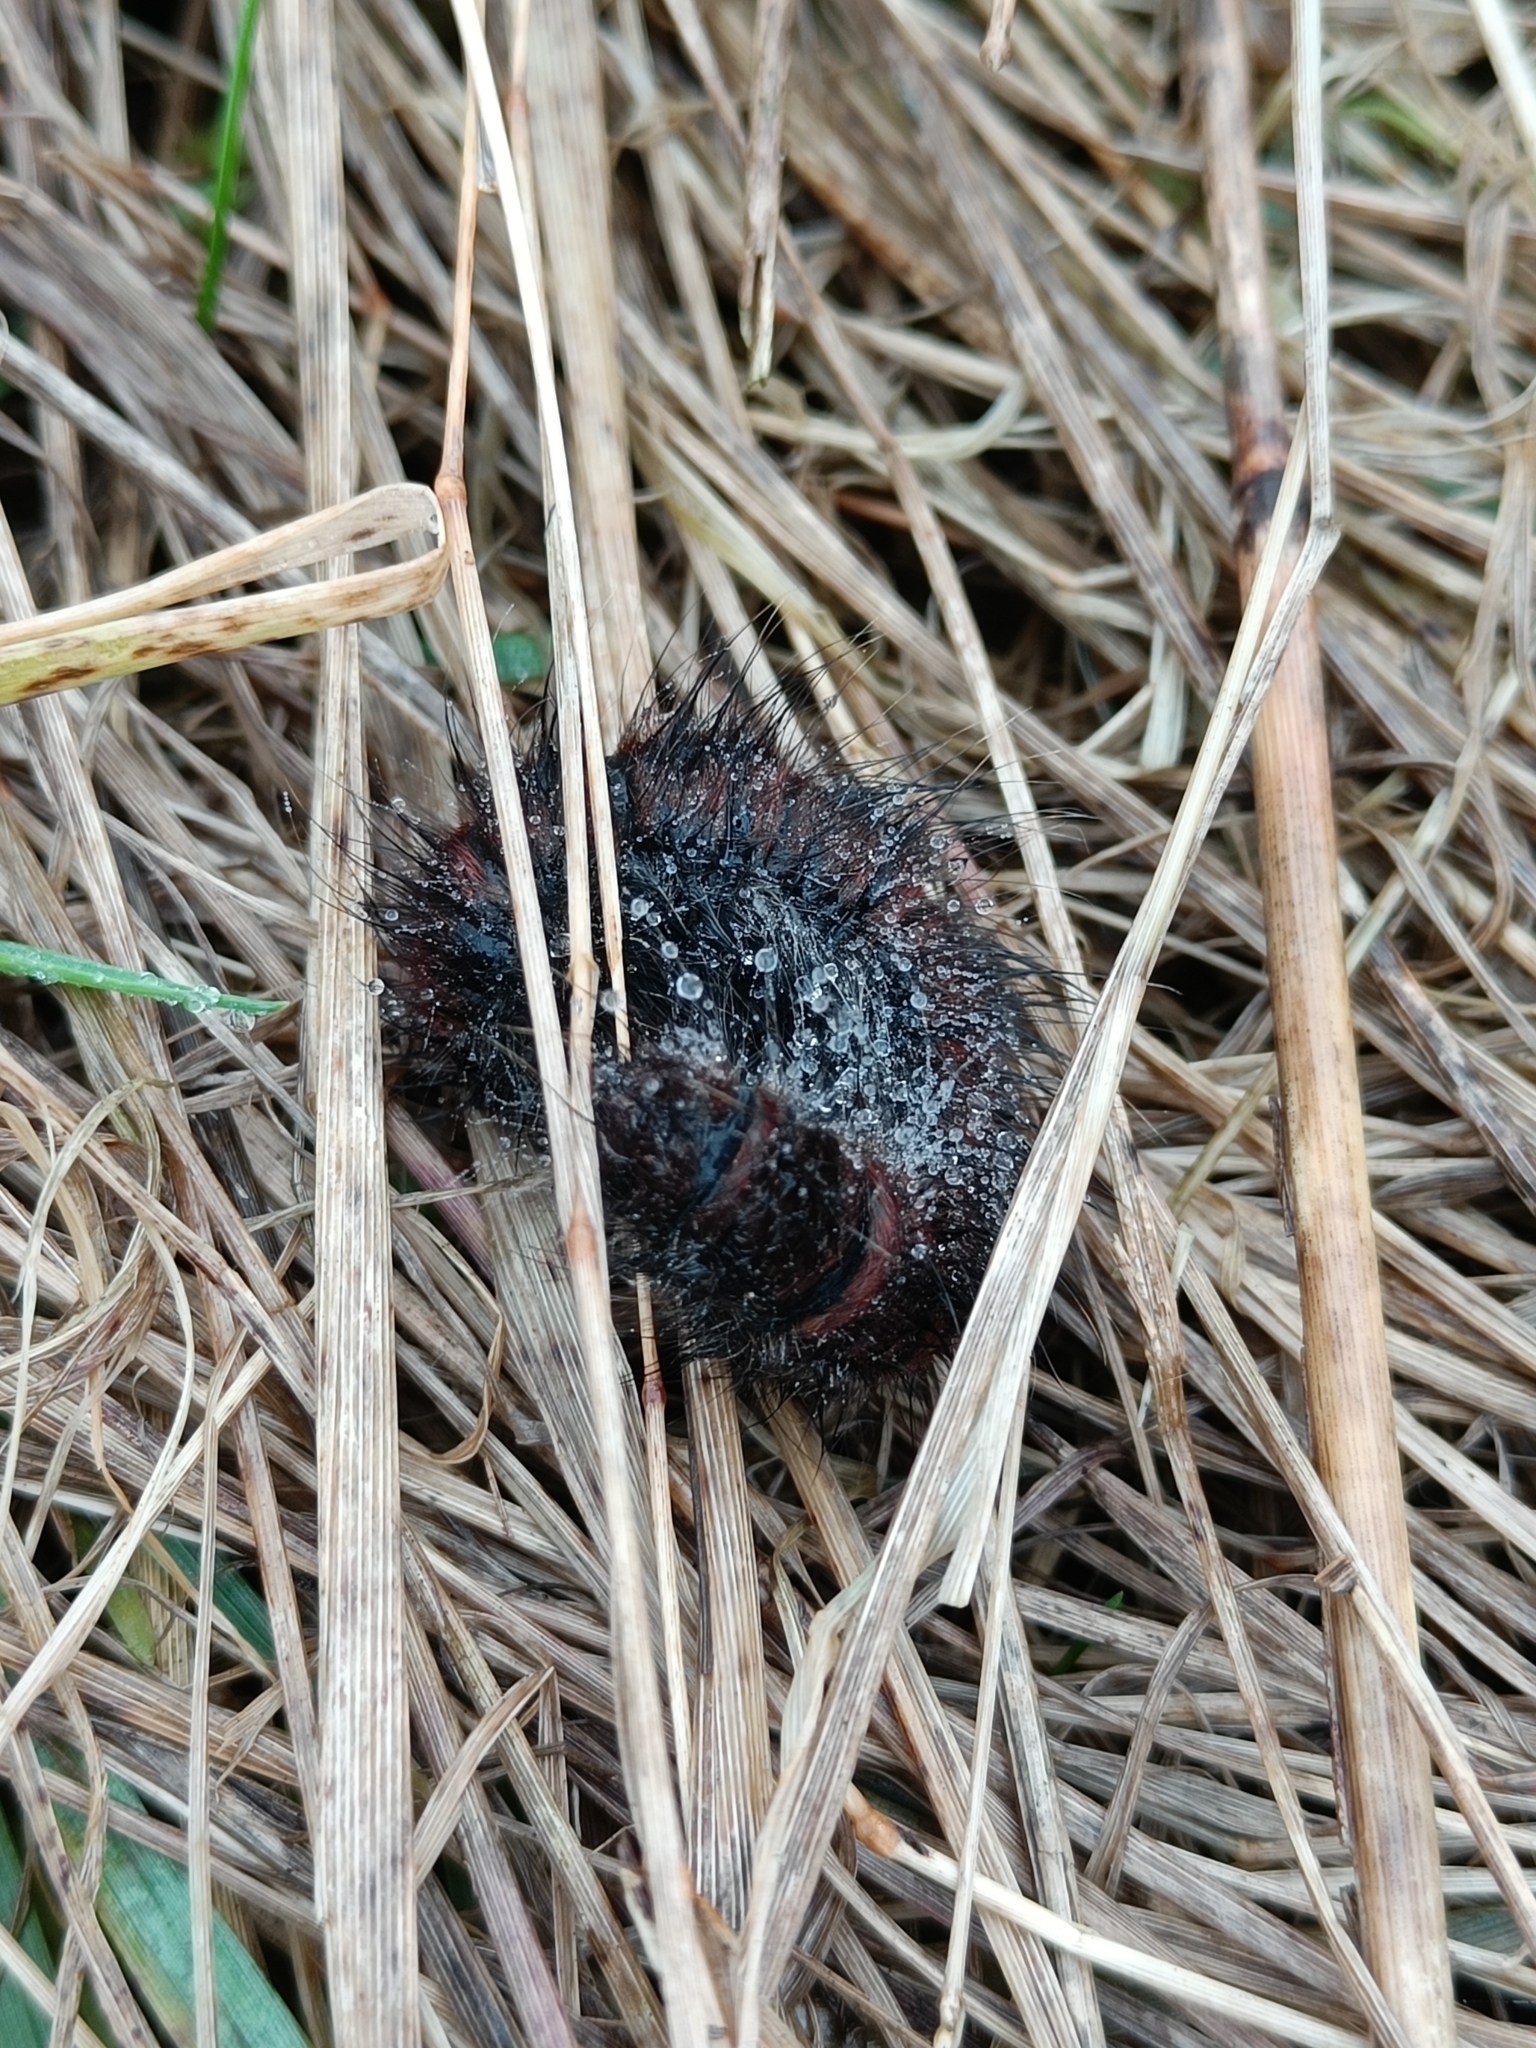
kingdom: Animalia
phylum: Arthropoda
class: Insecta
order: Lepidoptera
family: Lasiocampidae
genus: Macrothylacia
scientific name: Macrothylacia rubi
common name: Fox moth
